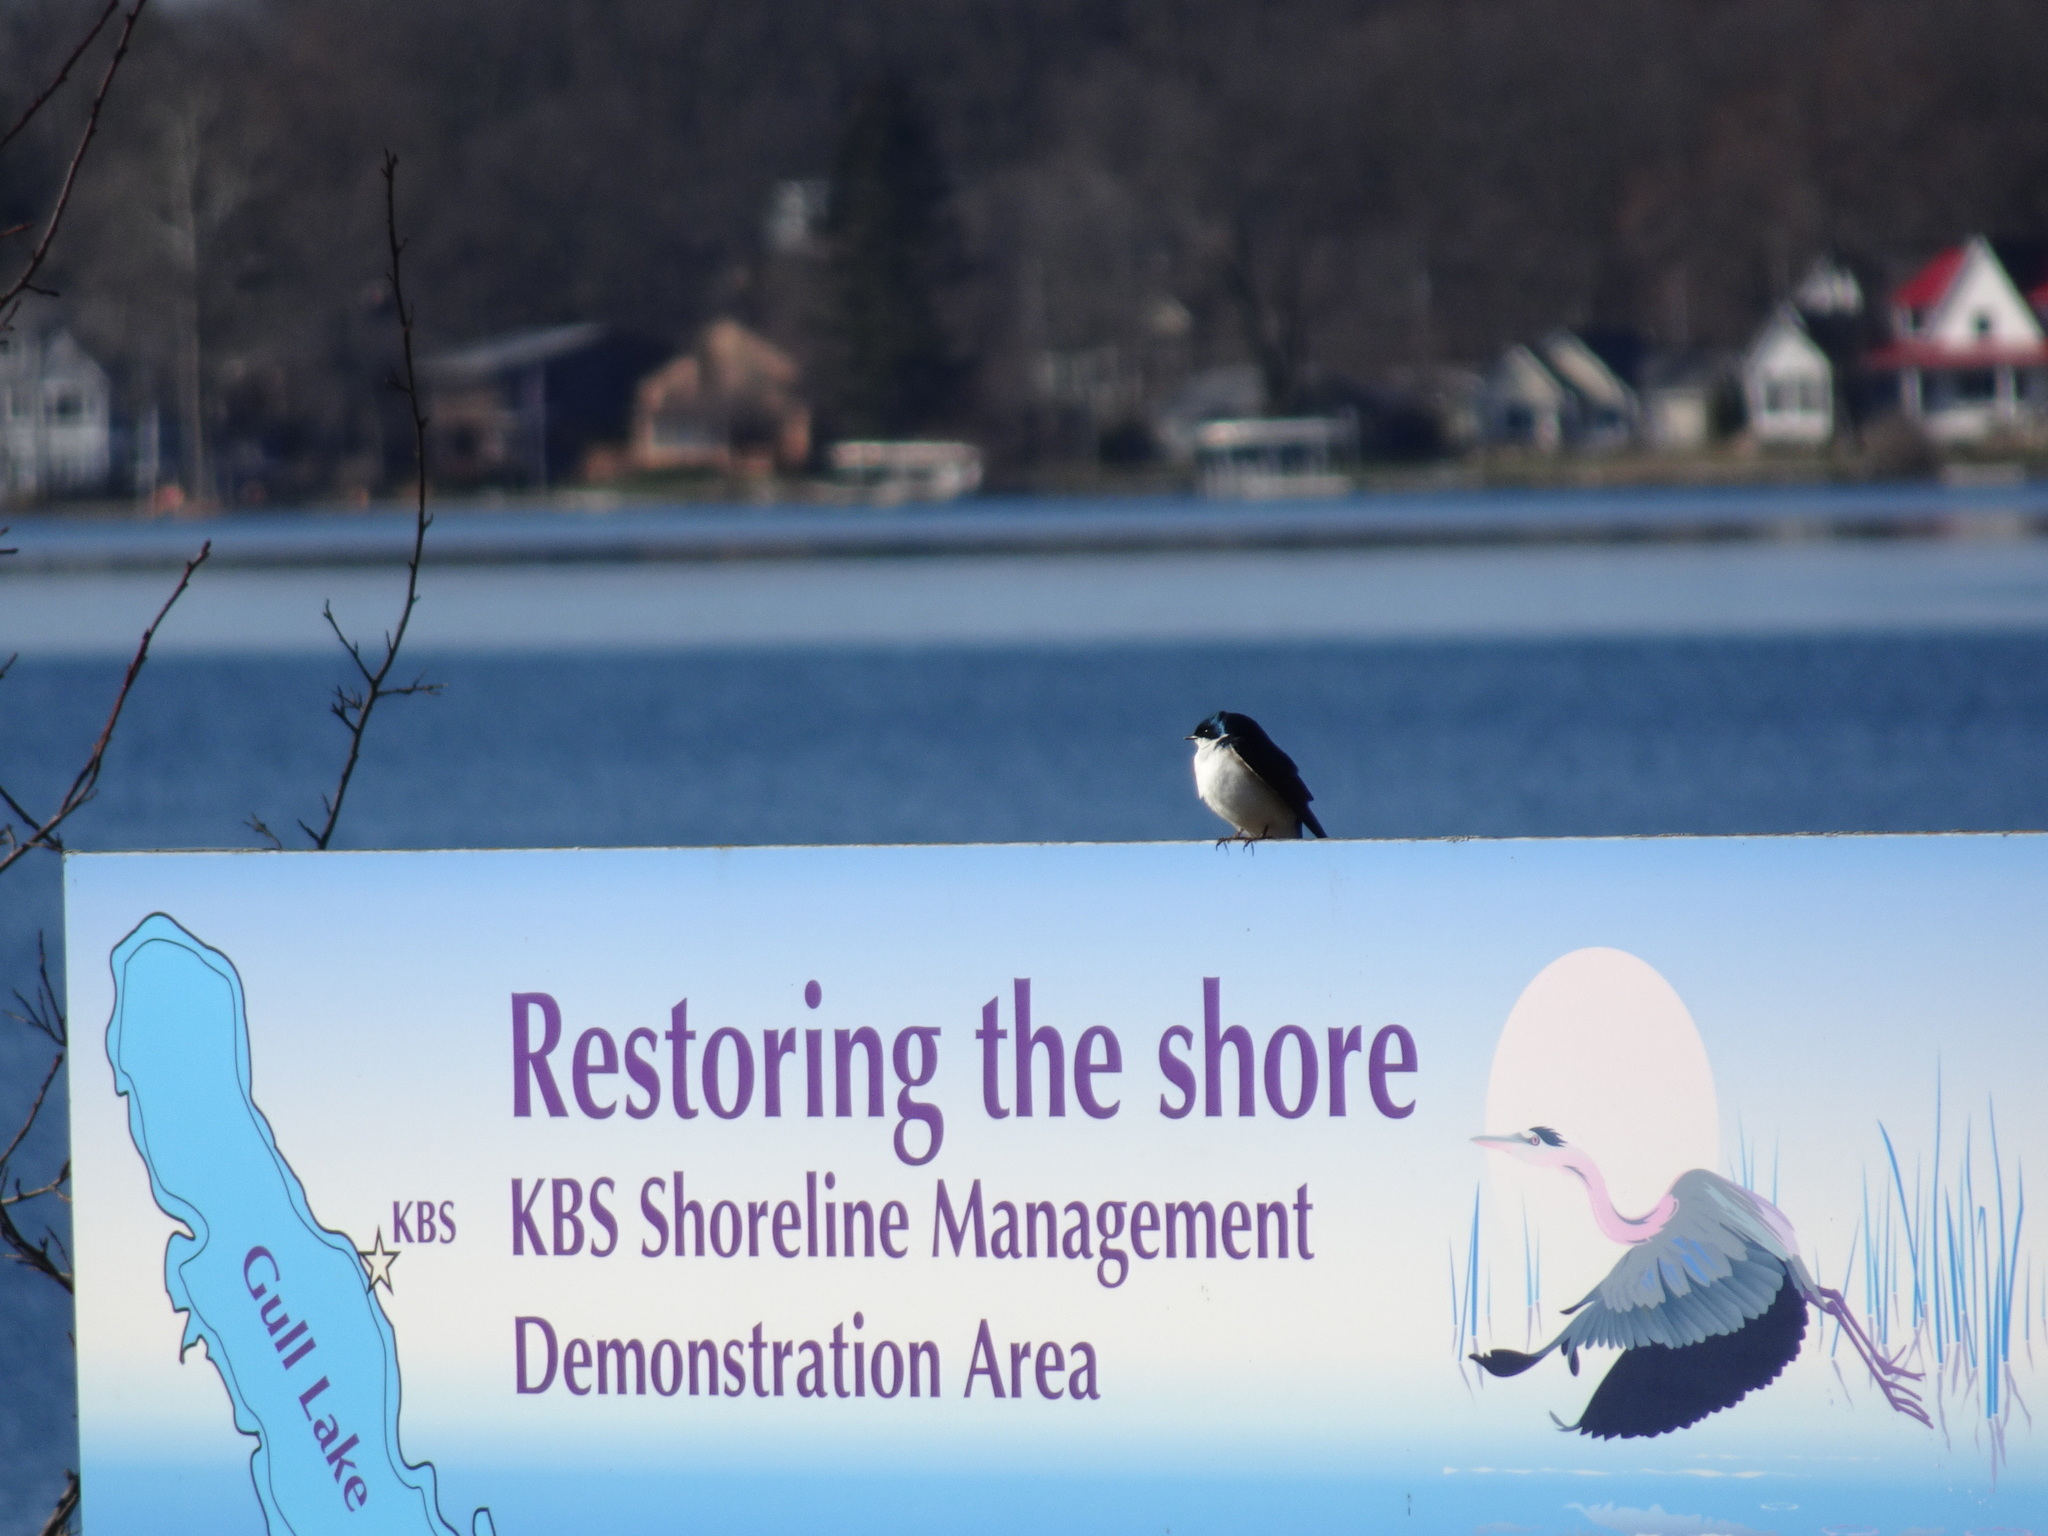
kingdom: Animalia
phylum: Chordata
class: Aves
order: Passeriformes
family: Hirundinidae
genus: Tachycineta
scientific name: Tachycineta bicolor
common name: Tree swallow
